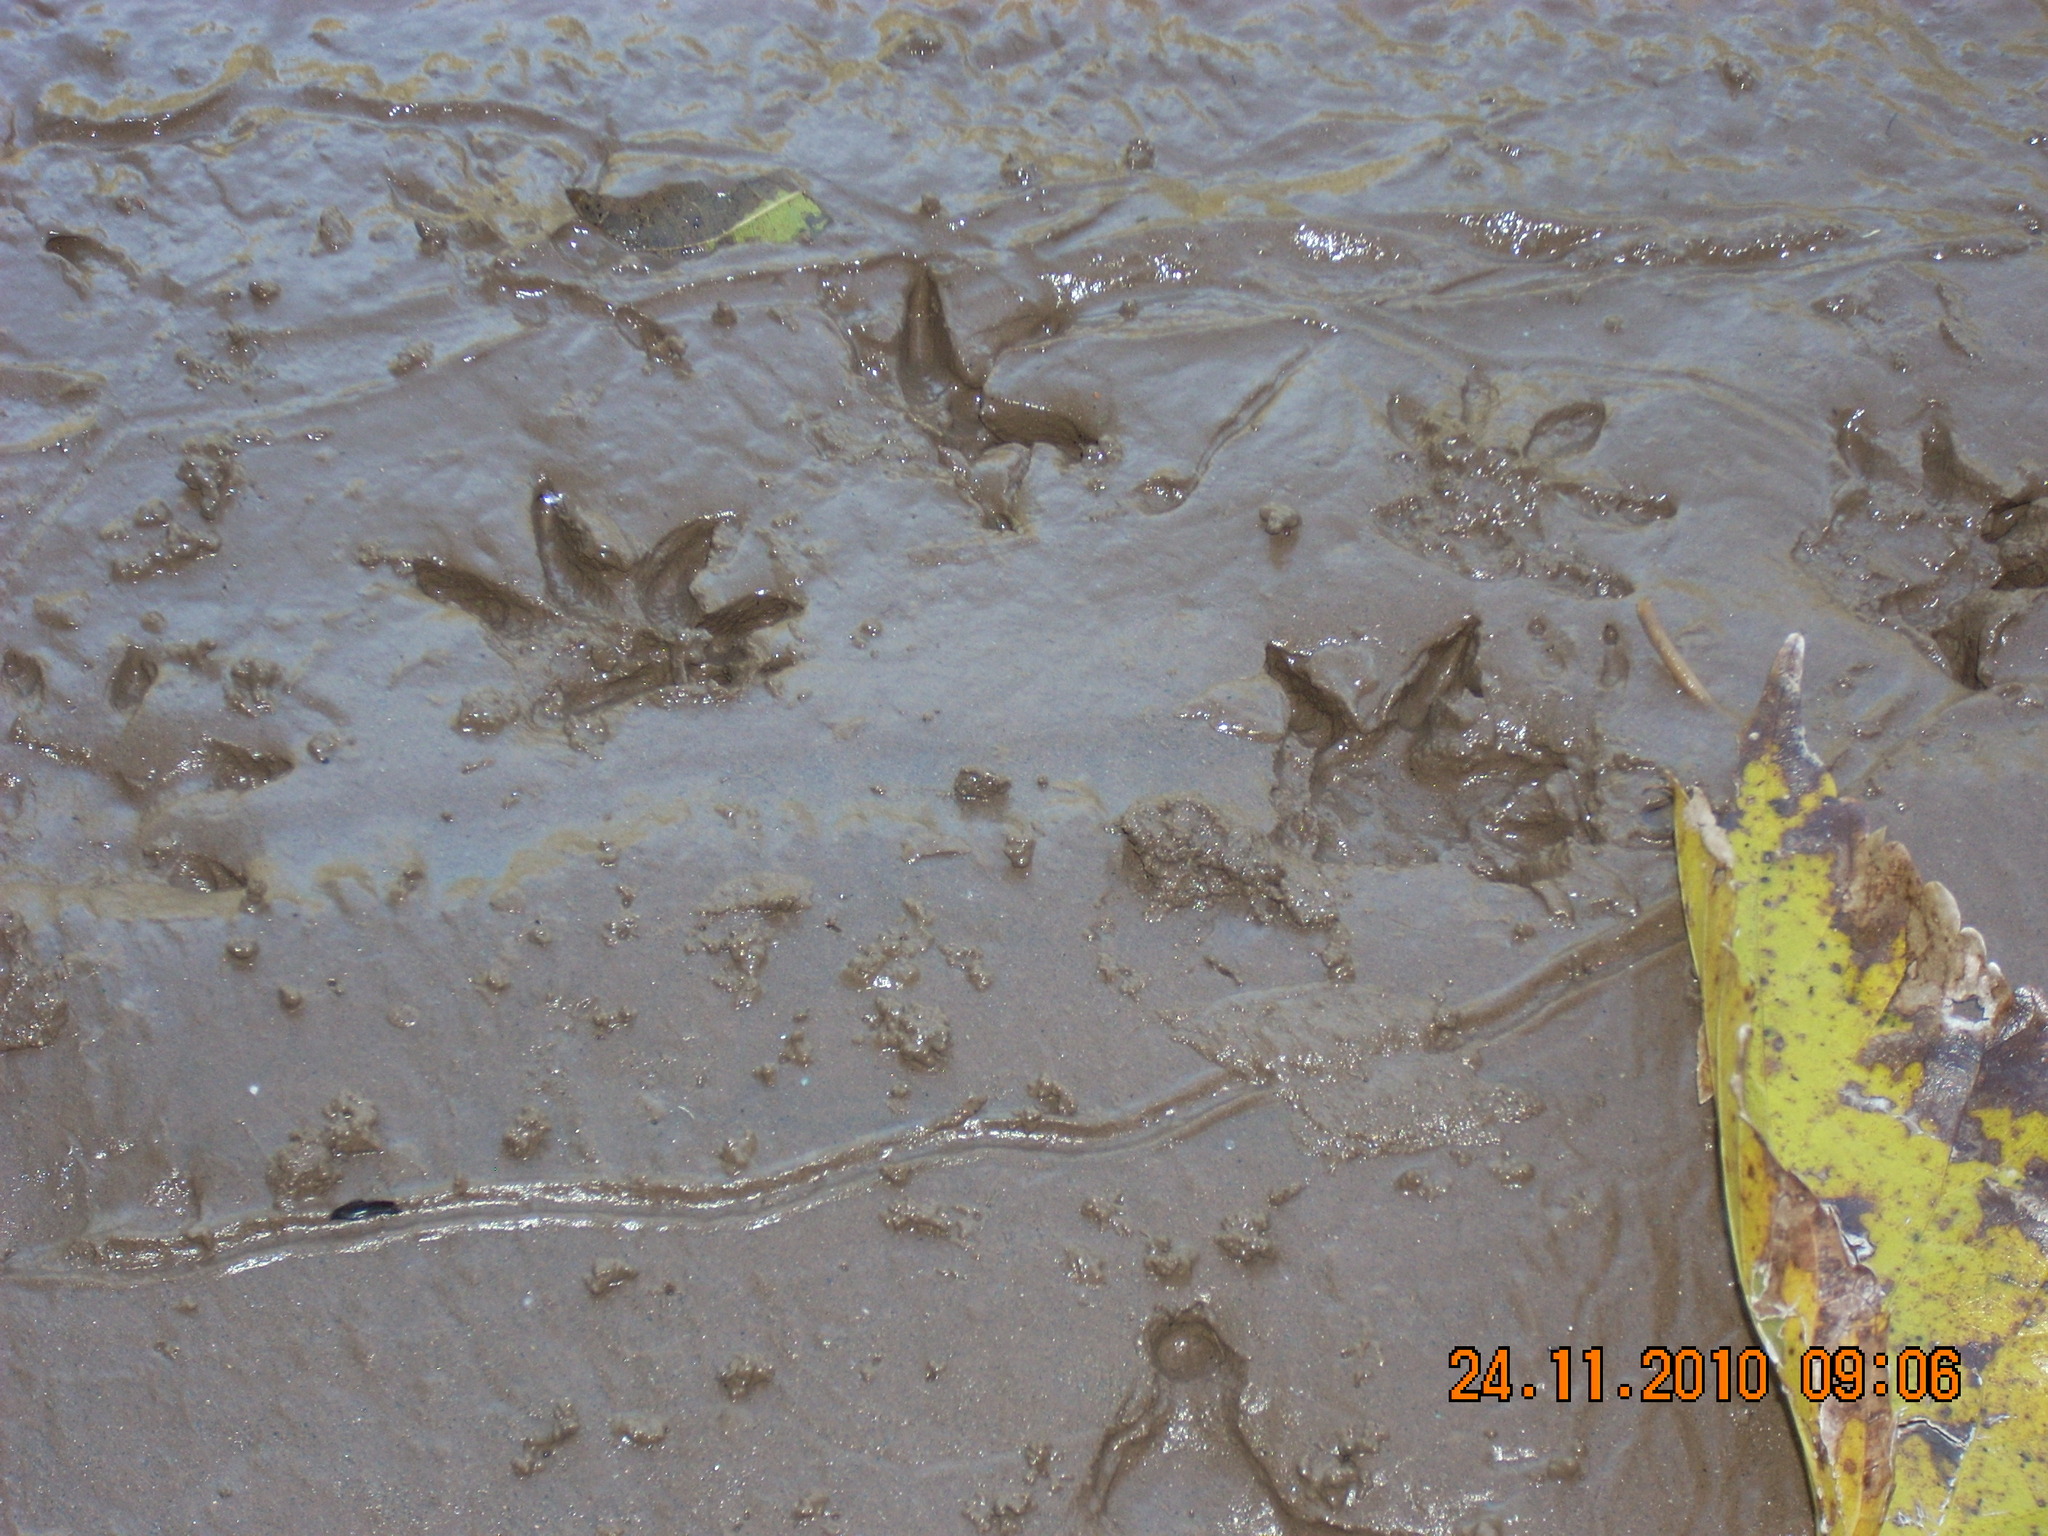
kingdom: Animalia
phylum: Chordata
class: Mammalia
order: Didelphimorphia
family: Didelphidae
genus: Didelphis
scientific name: Didelphis albiventris
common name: White-eared opossum
